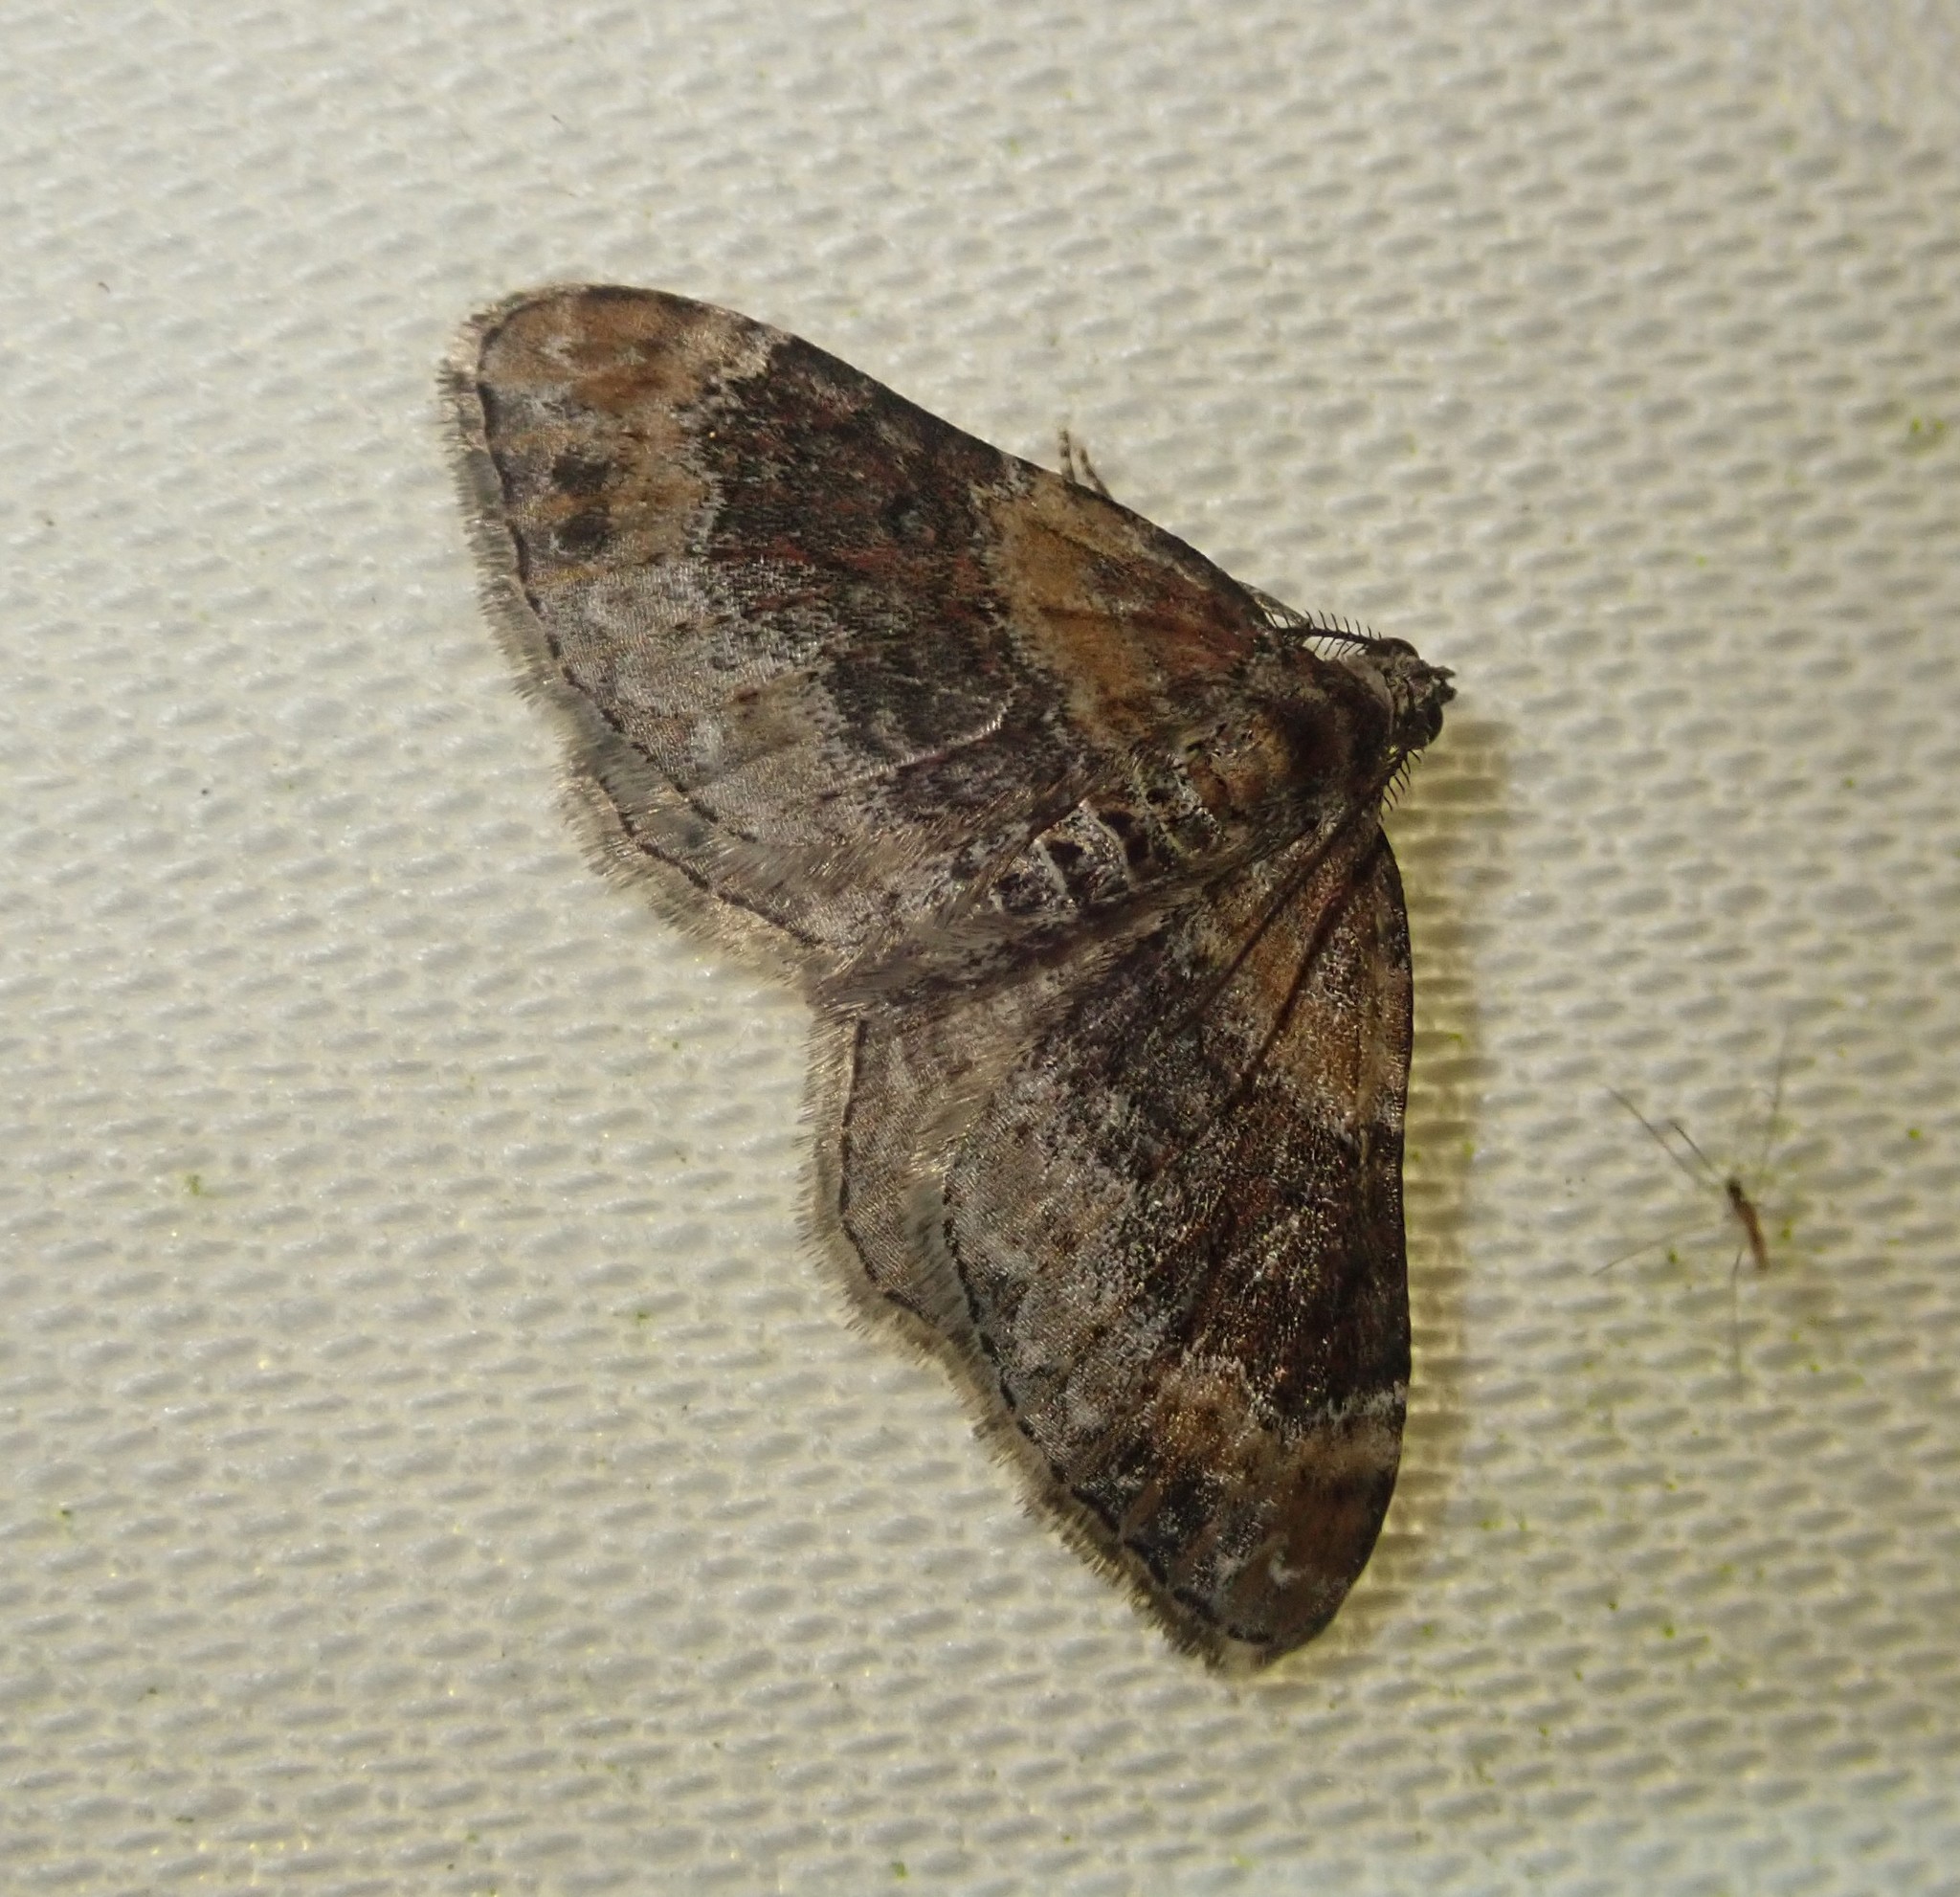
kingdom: Animalia
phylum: Arthropoda
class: Insecta
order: Lepidoptera
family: Geometridae
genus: Xanthorhoe
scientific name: Xanthorhoe ferrugata
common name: Dark-barred twin-spot carpet
